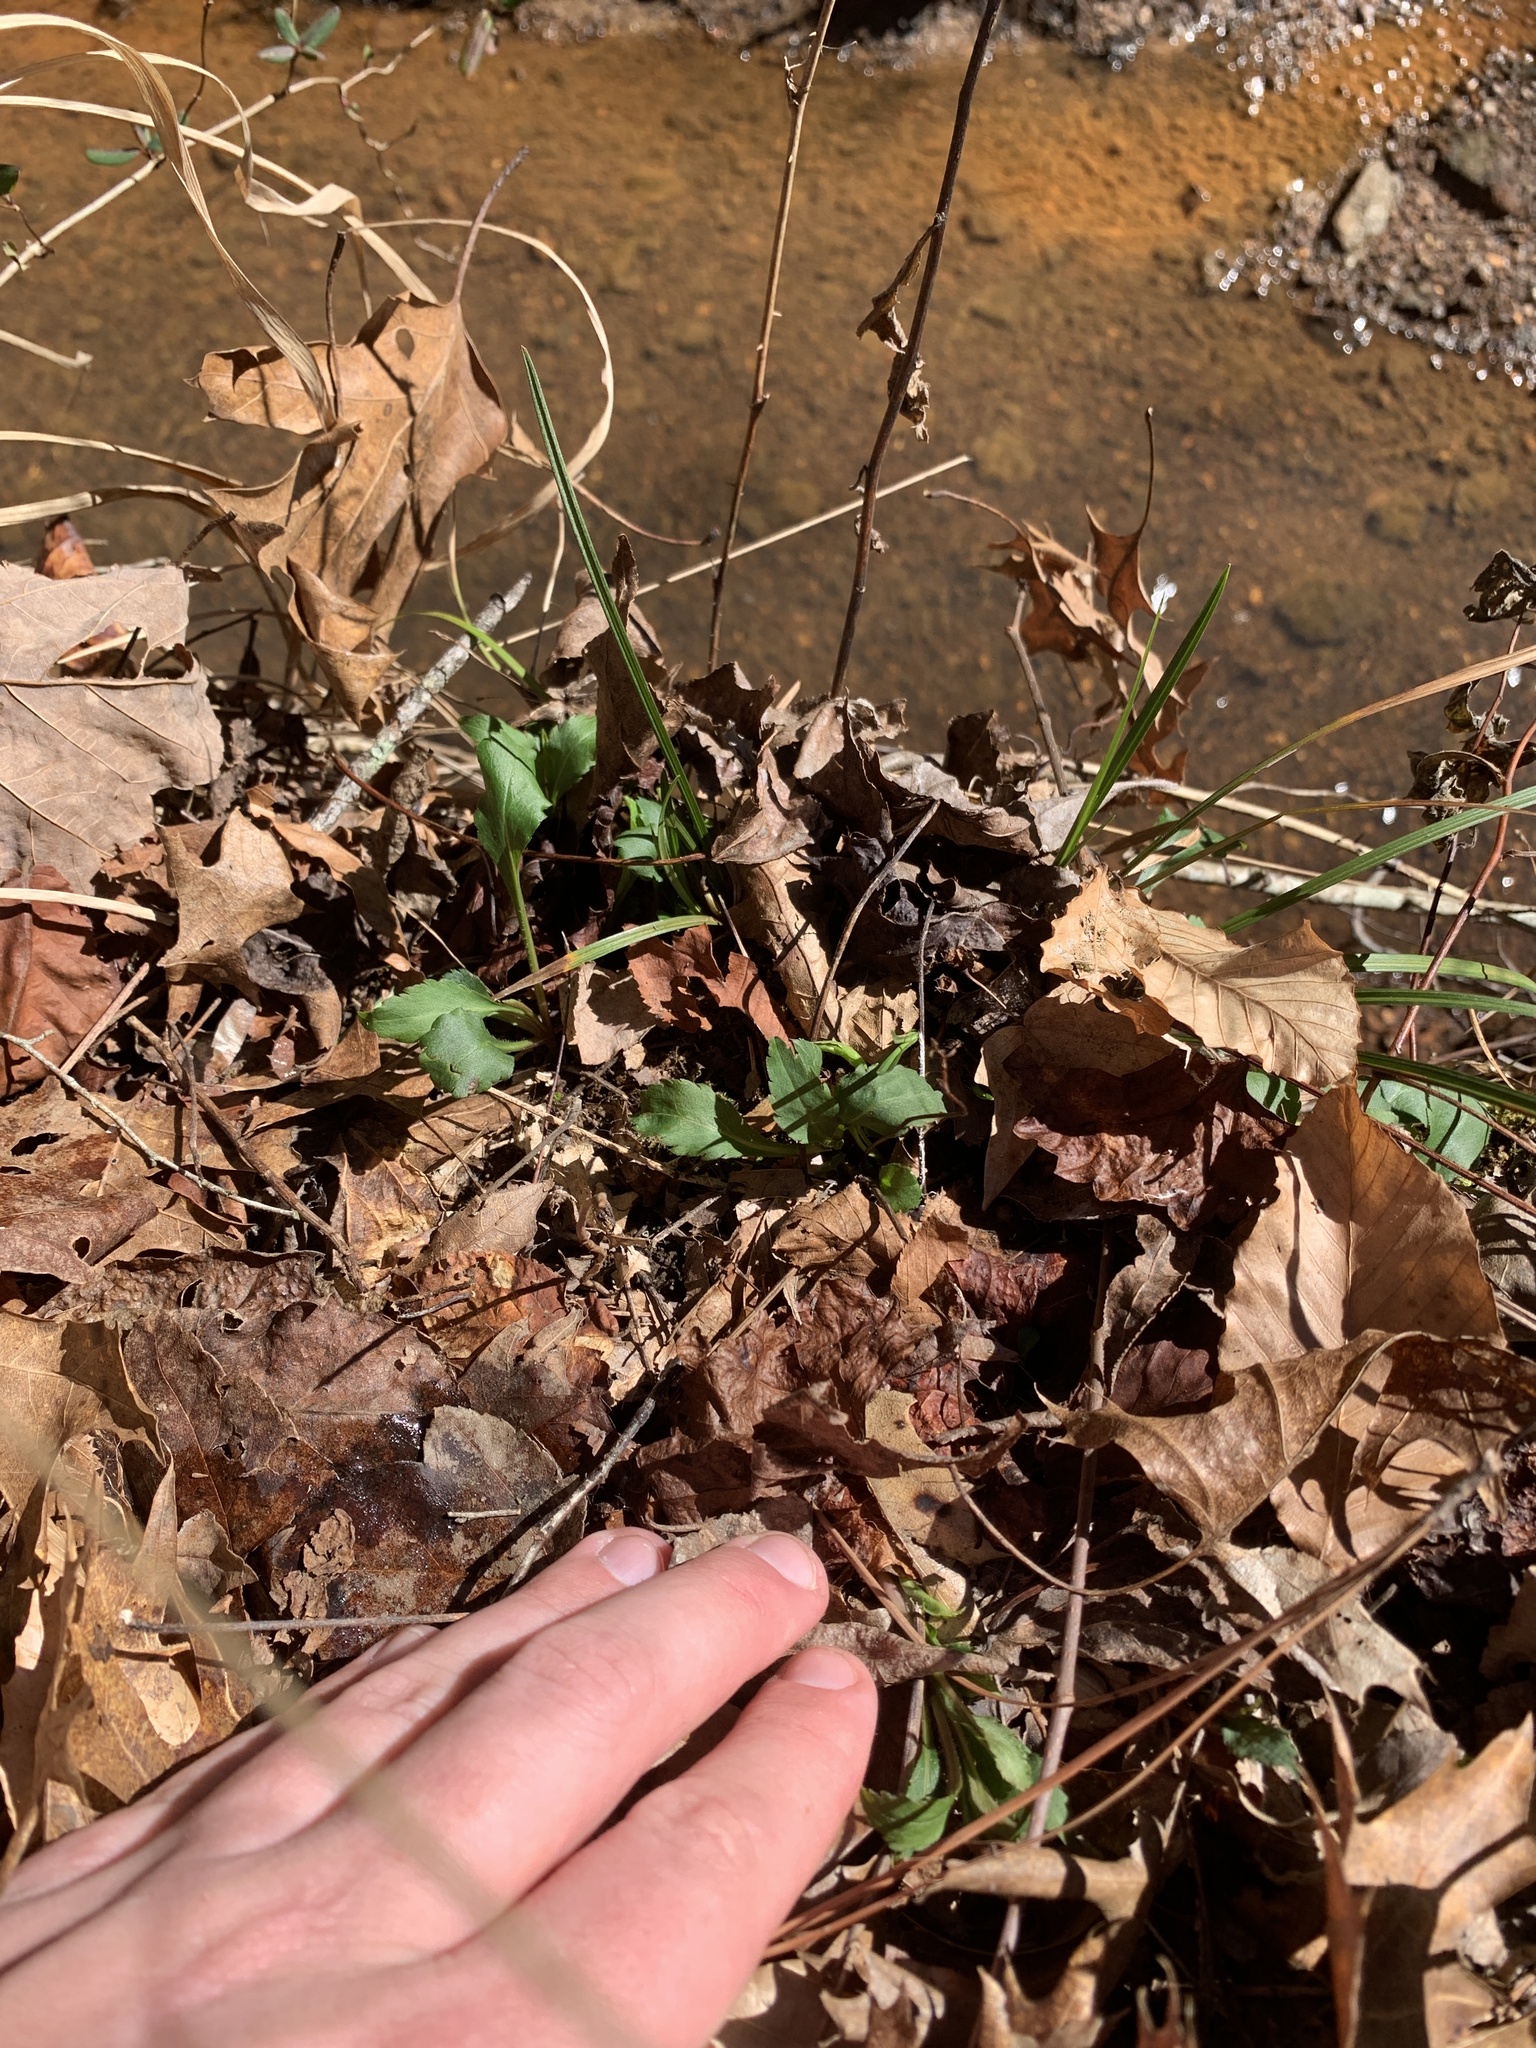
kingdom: Plantae
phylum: Tracheophyta
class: Magnoliopsida
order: Asterales
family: Asteraceae
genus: Solidago
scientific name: Solidago caesia
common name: Woodland goldenrod
